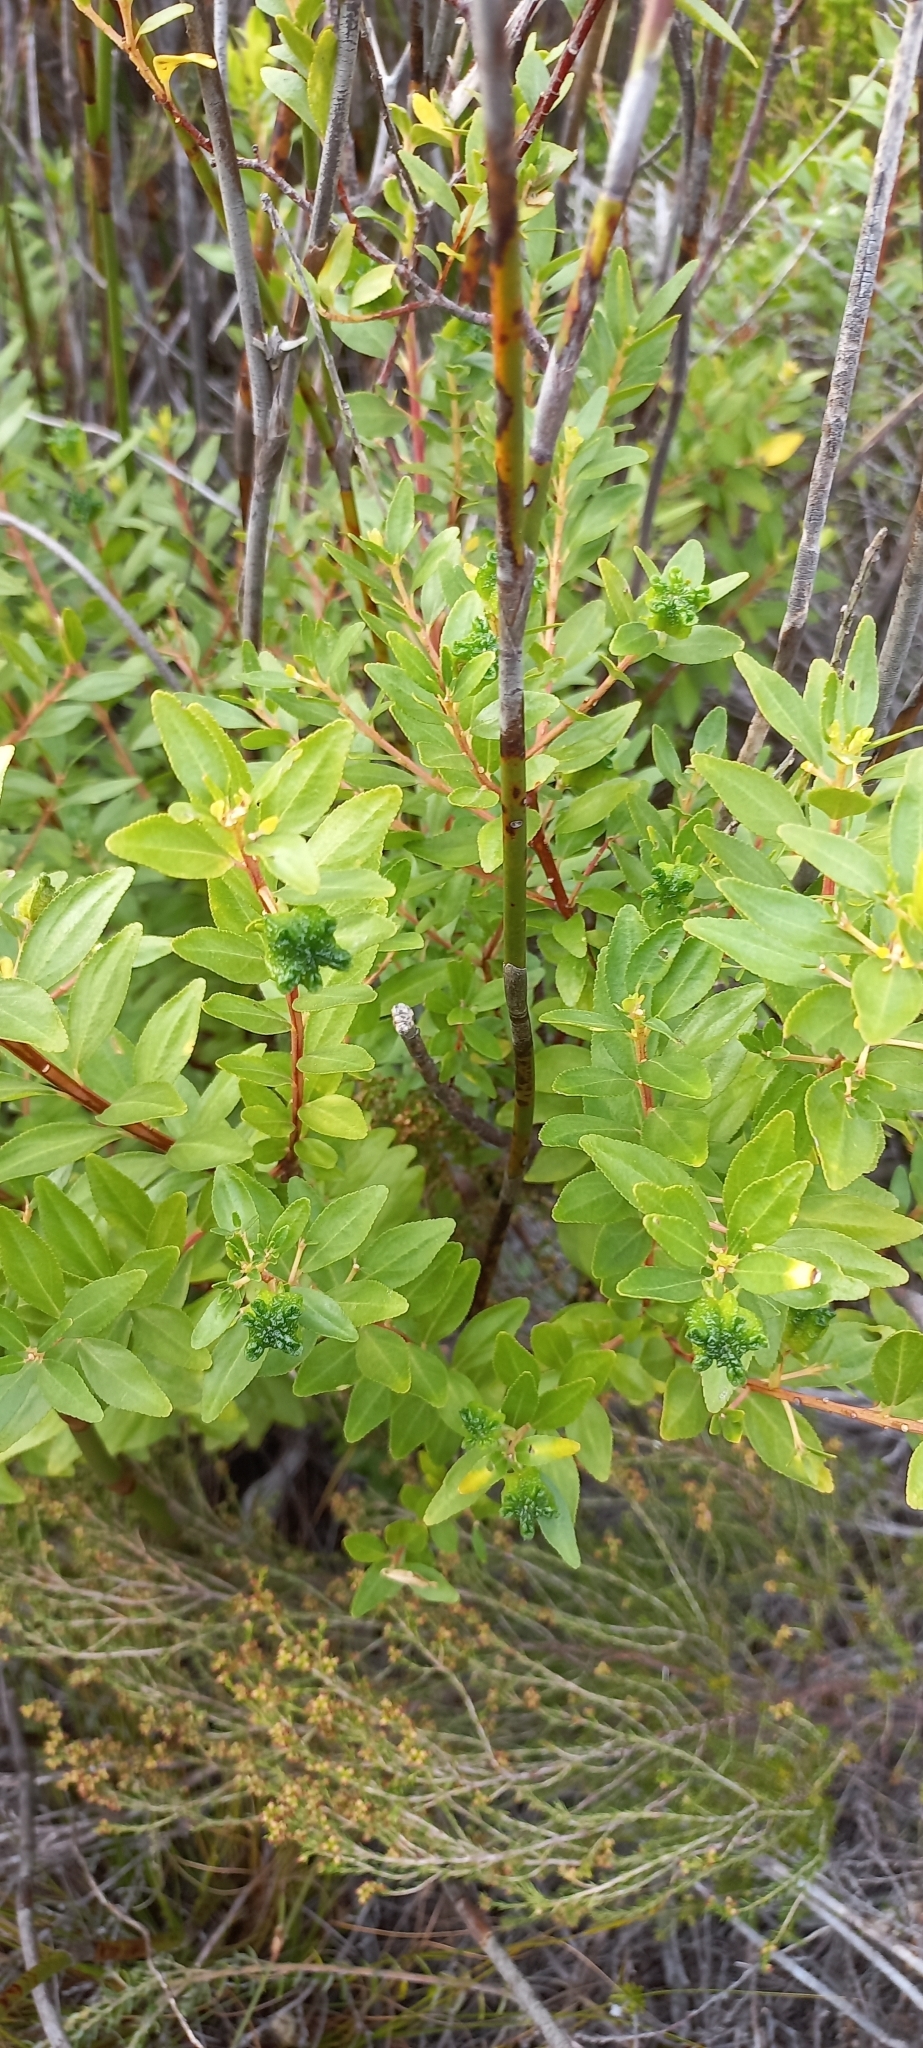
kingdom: Plantae
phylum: Tracheophyta
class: Magnoliopsida
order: Sapindales
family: Rutaceae
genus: Agathosma
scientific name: Agathosma crenulata
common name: Oval buchu
